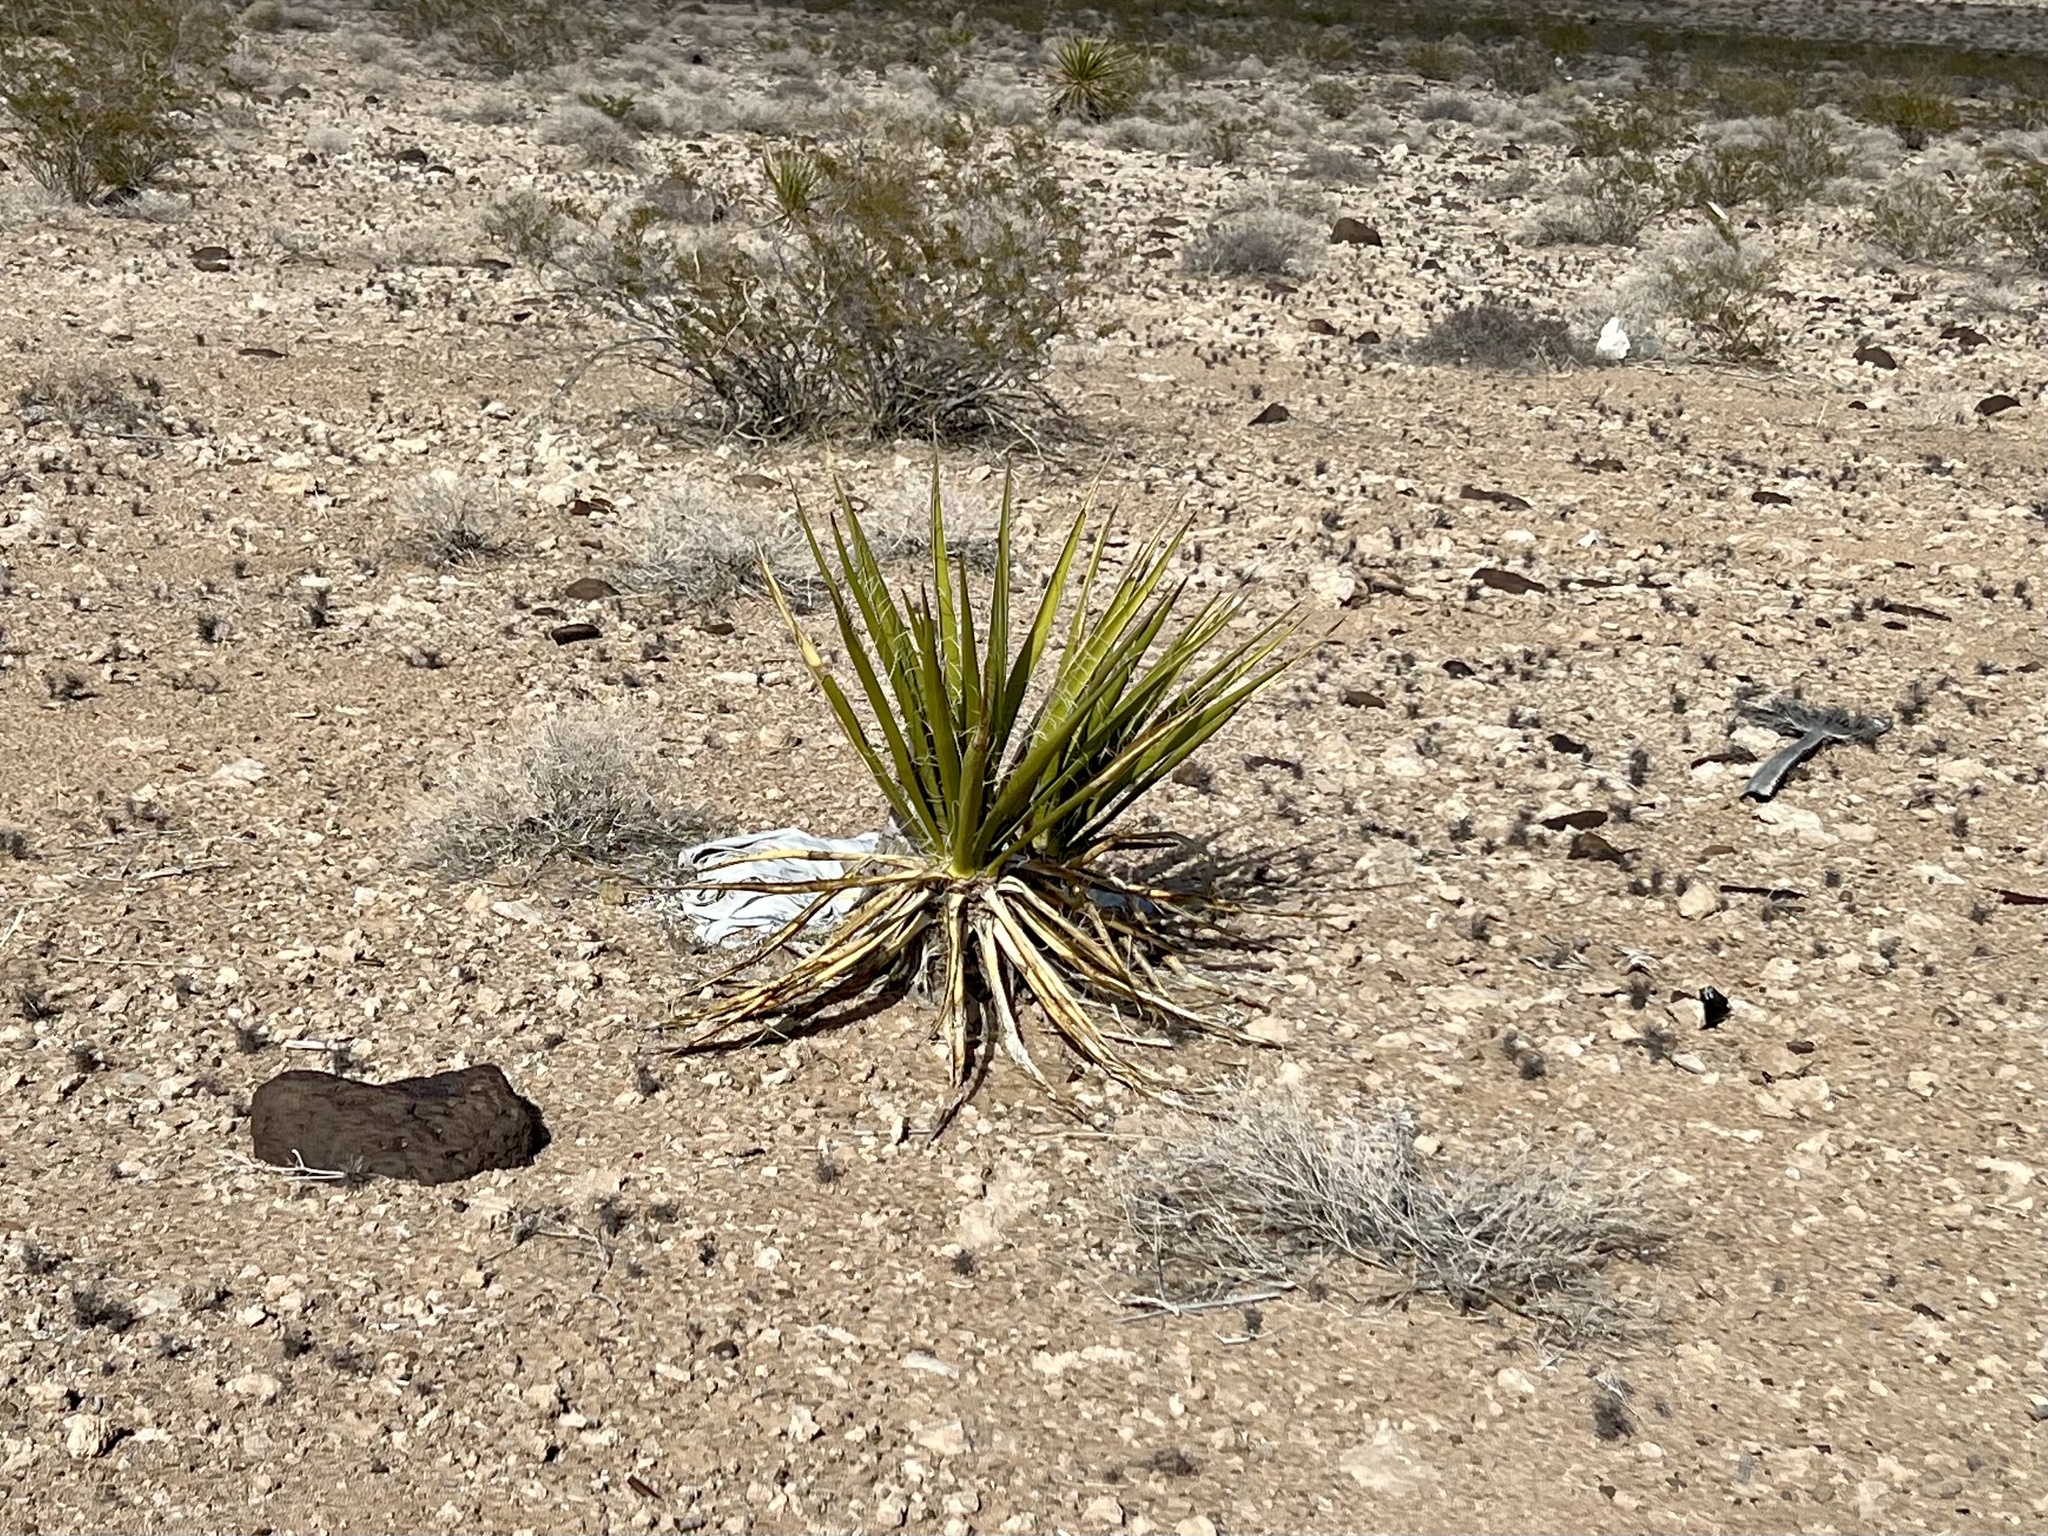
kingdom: Plantae
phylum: Tracheophyta
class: Liliopsida
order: Asparagales
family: Asparagaceae
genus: Yucca
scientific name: Yucca schidigera
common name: Mojave yucca
